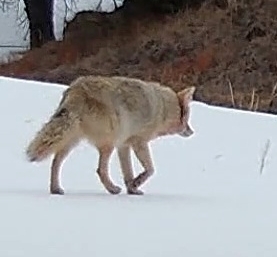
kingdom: Animalia
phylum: Chordata
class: Mammalia
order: Carnivora
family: Canidae
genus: Canis
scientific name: Canis latrans
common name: Coyote
